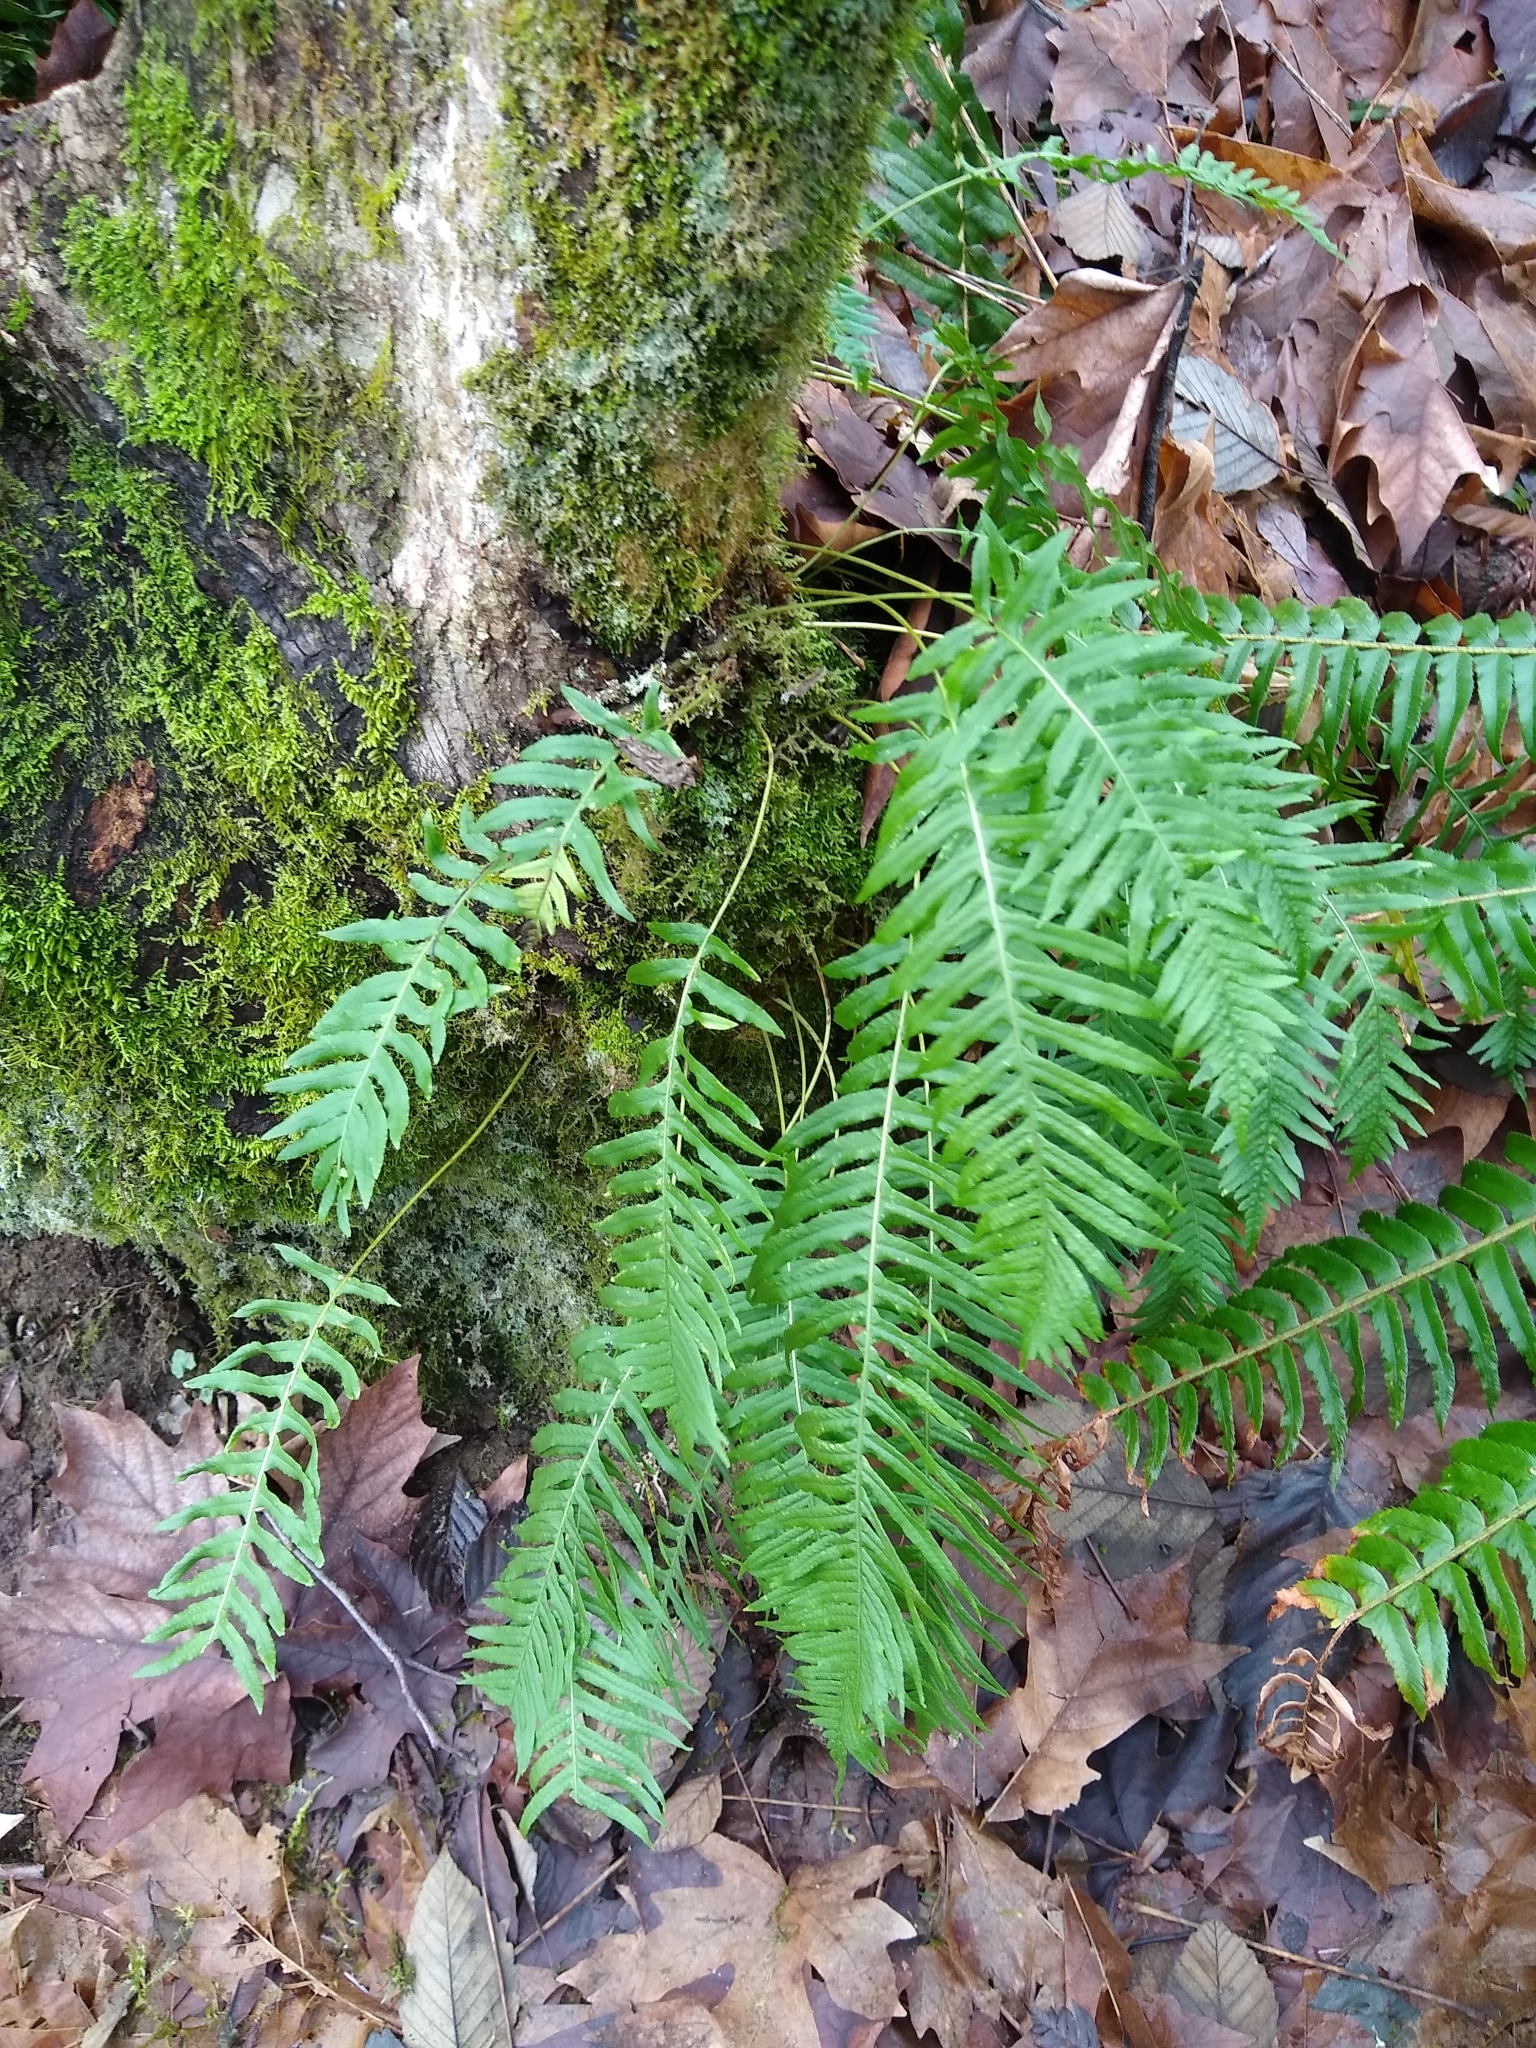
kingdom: Plantae
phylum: Tracheophyta
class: Polypodiopsida
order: Polypodiales
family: Polypodiaceae
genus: Polypodium
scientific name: Polypodium glycyrrhiza
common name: Licorice fern
